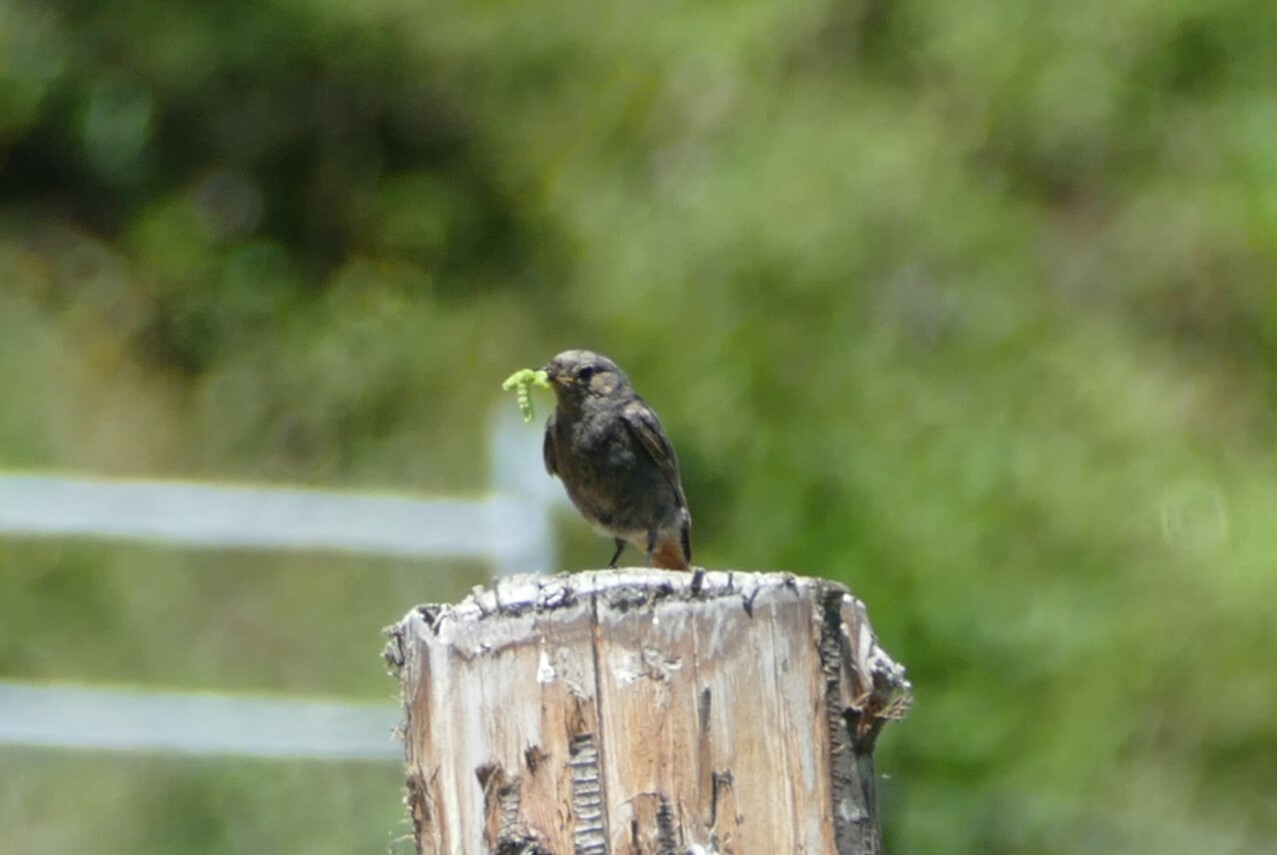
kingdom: Animalia
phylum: Chordata
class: Aves
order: Passeriformes
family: Muscicapidae
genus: Phoenicurus
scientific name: Phoenicurus ochruros
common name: Black redstart
